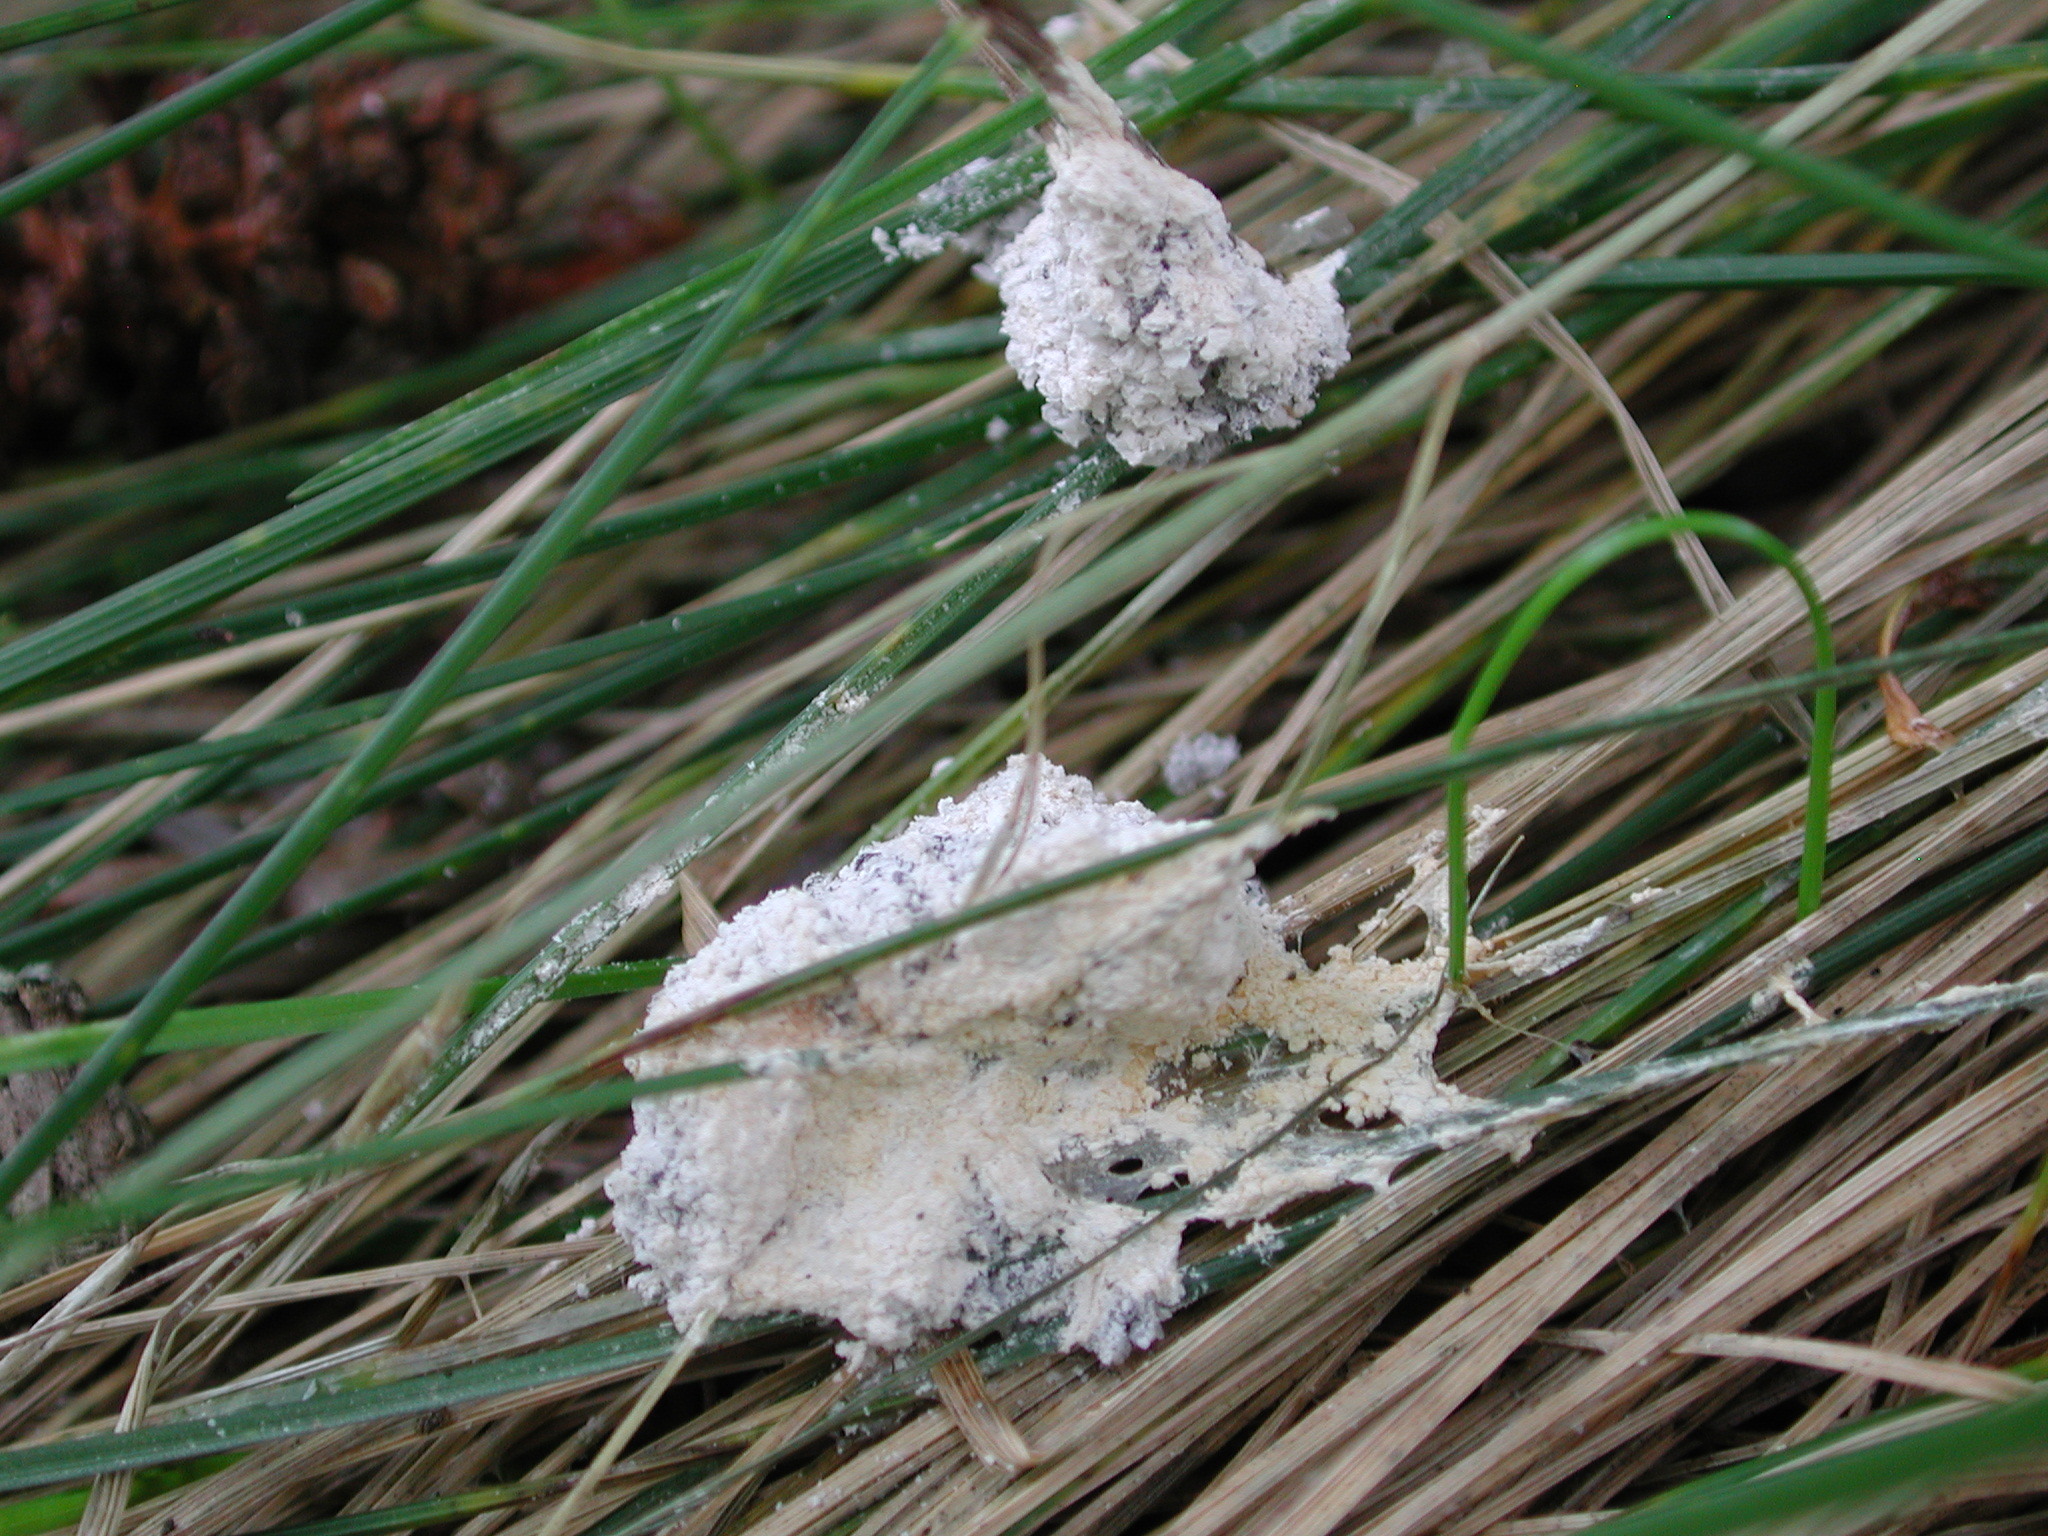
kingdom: Protozoa
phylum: Mycetozoa
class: Myxomycetes
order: Physarales
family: Physaraceae
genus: Didymium
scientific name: Didymium
